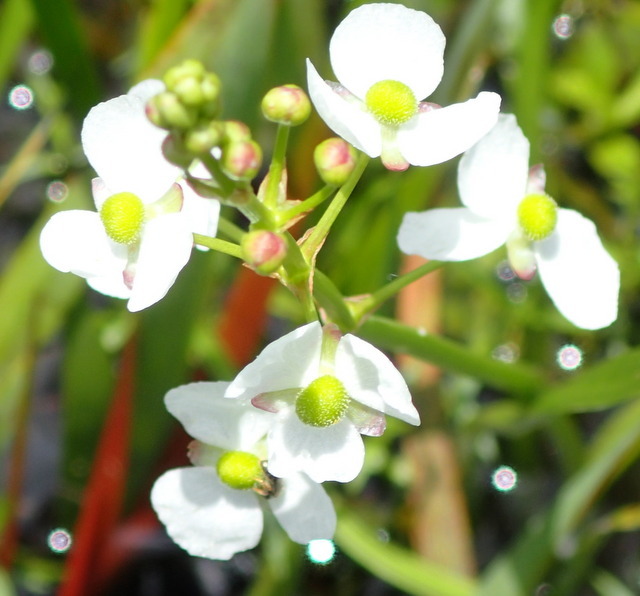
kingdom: Plantae
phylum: Tracheophyta
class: Liliopsida
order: Alismatales
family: Alismataceae
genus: Sagittaria
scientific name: Sagittaria lancifolia
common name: Lance-leaf arrowhead
